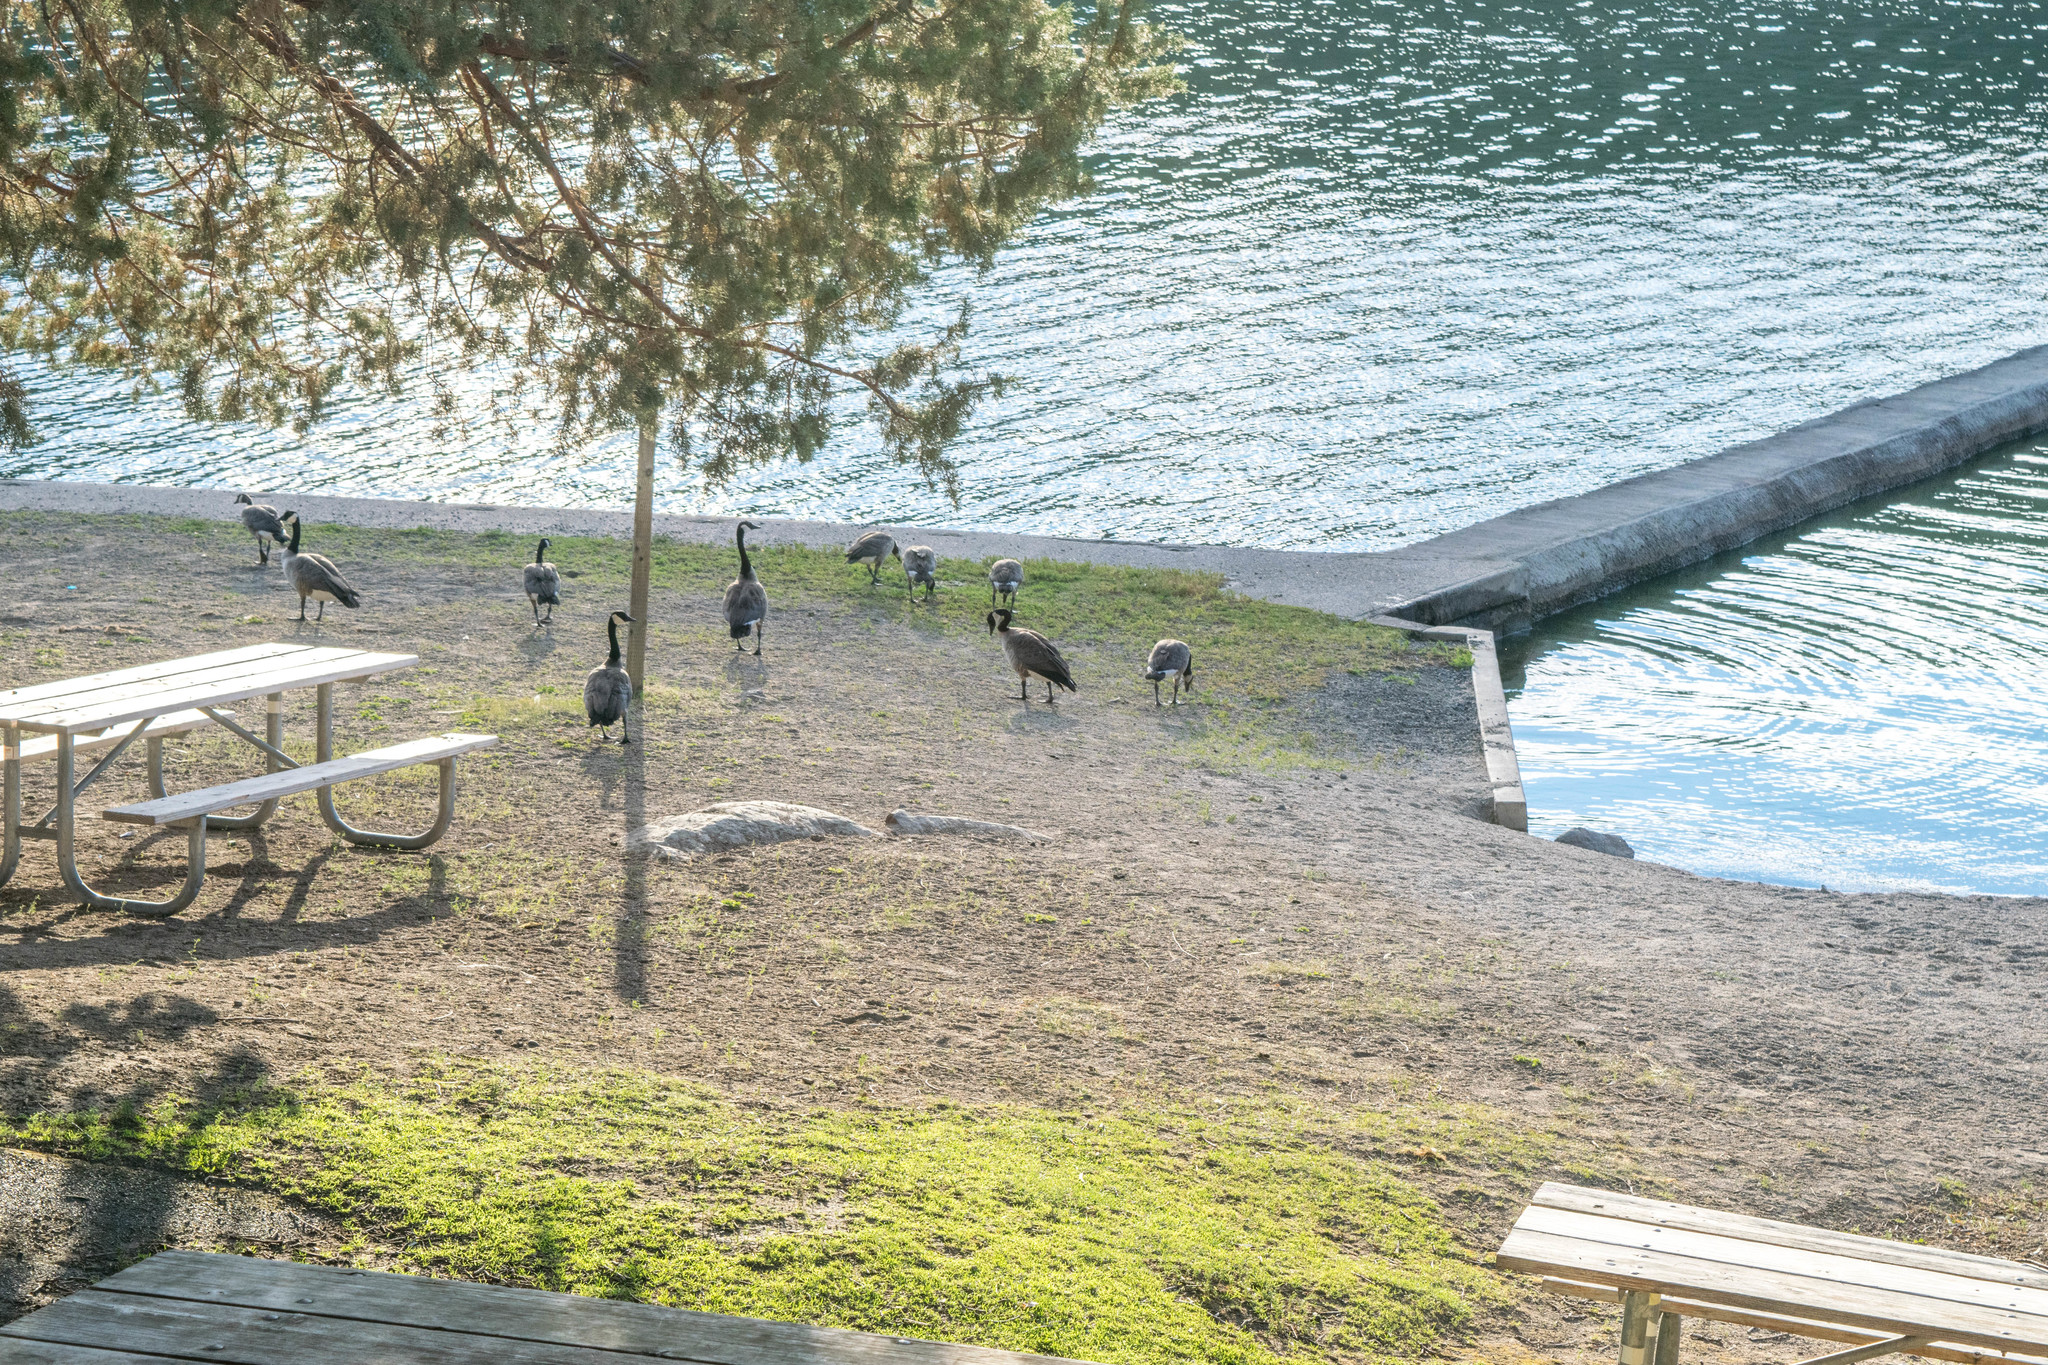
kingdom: Animalia
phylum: Chordata
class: Aves
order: Anseriformes
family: Anatidae
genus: Branta
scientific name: Branta canadensis
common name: Canada goose
